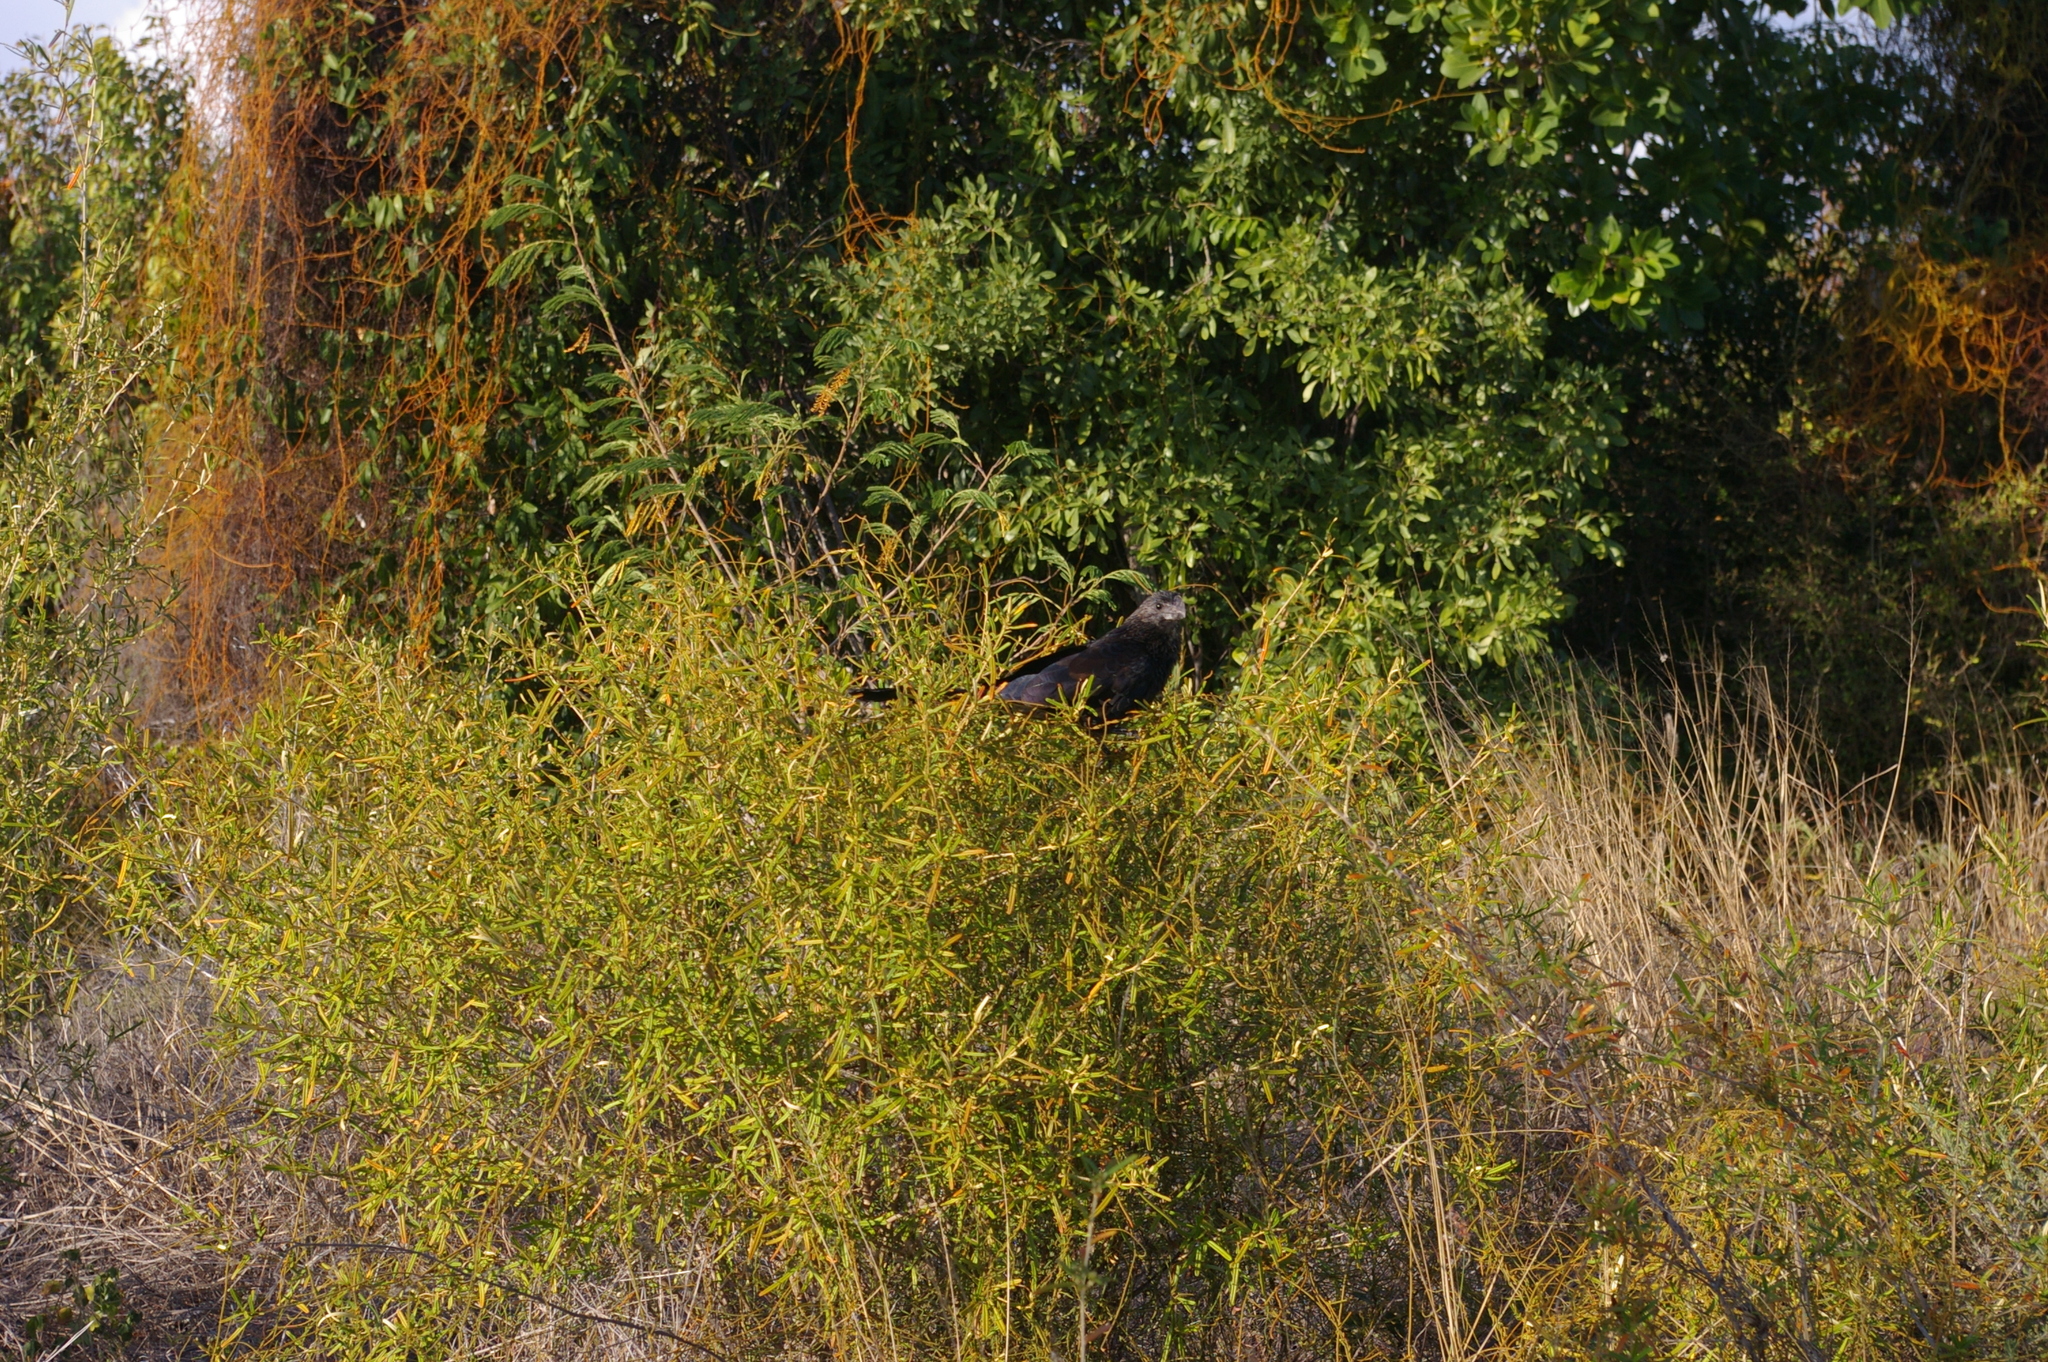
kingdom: Animalia
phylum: Chordata
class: Aves
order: Cuculiformes
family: Cuculidae
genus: Crotophaga
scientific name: Crotophaga ani
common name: Smooth-billed ani
